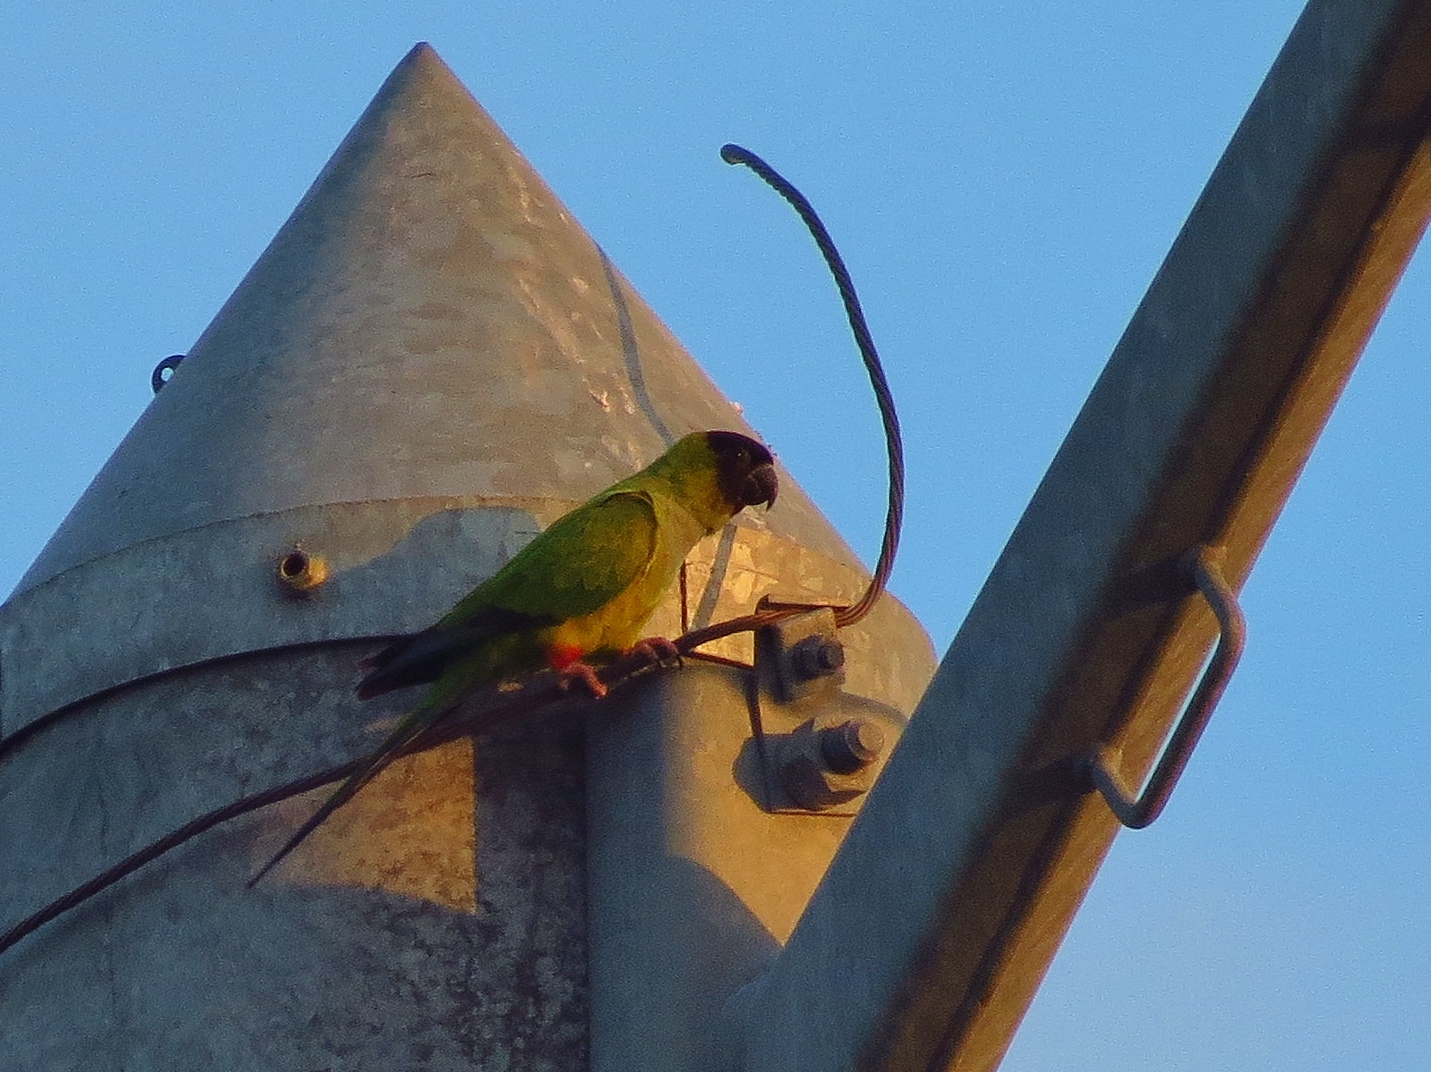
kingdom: Animalia
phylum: Chordata
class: Aves
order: Psittaciformes
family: Psittacidae
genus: Nandayus
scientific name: Nandayus nenday
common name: Nanday parakeet
